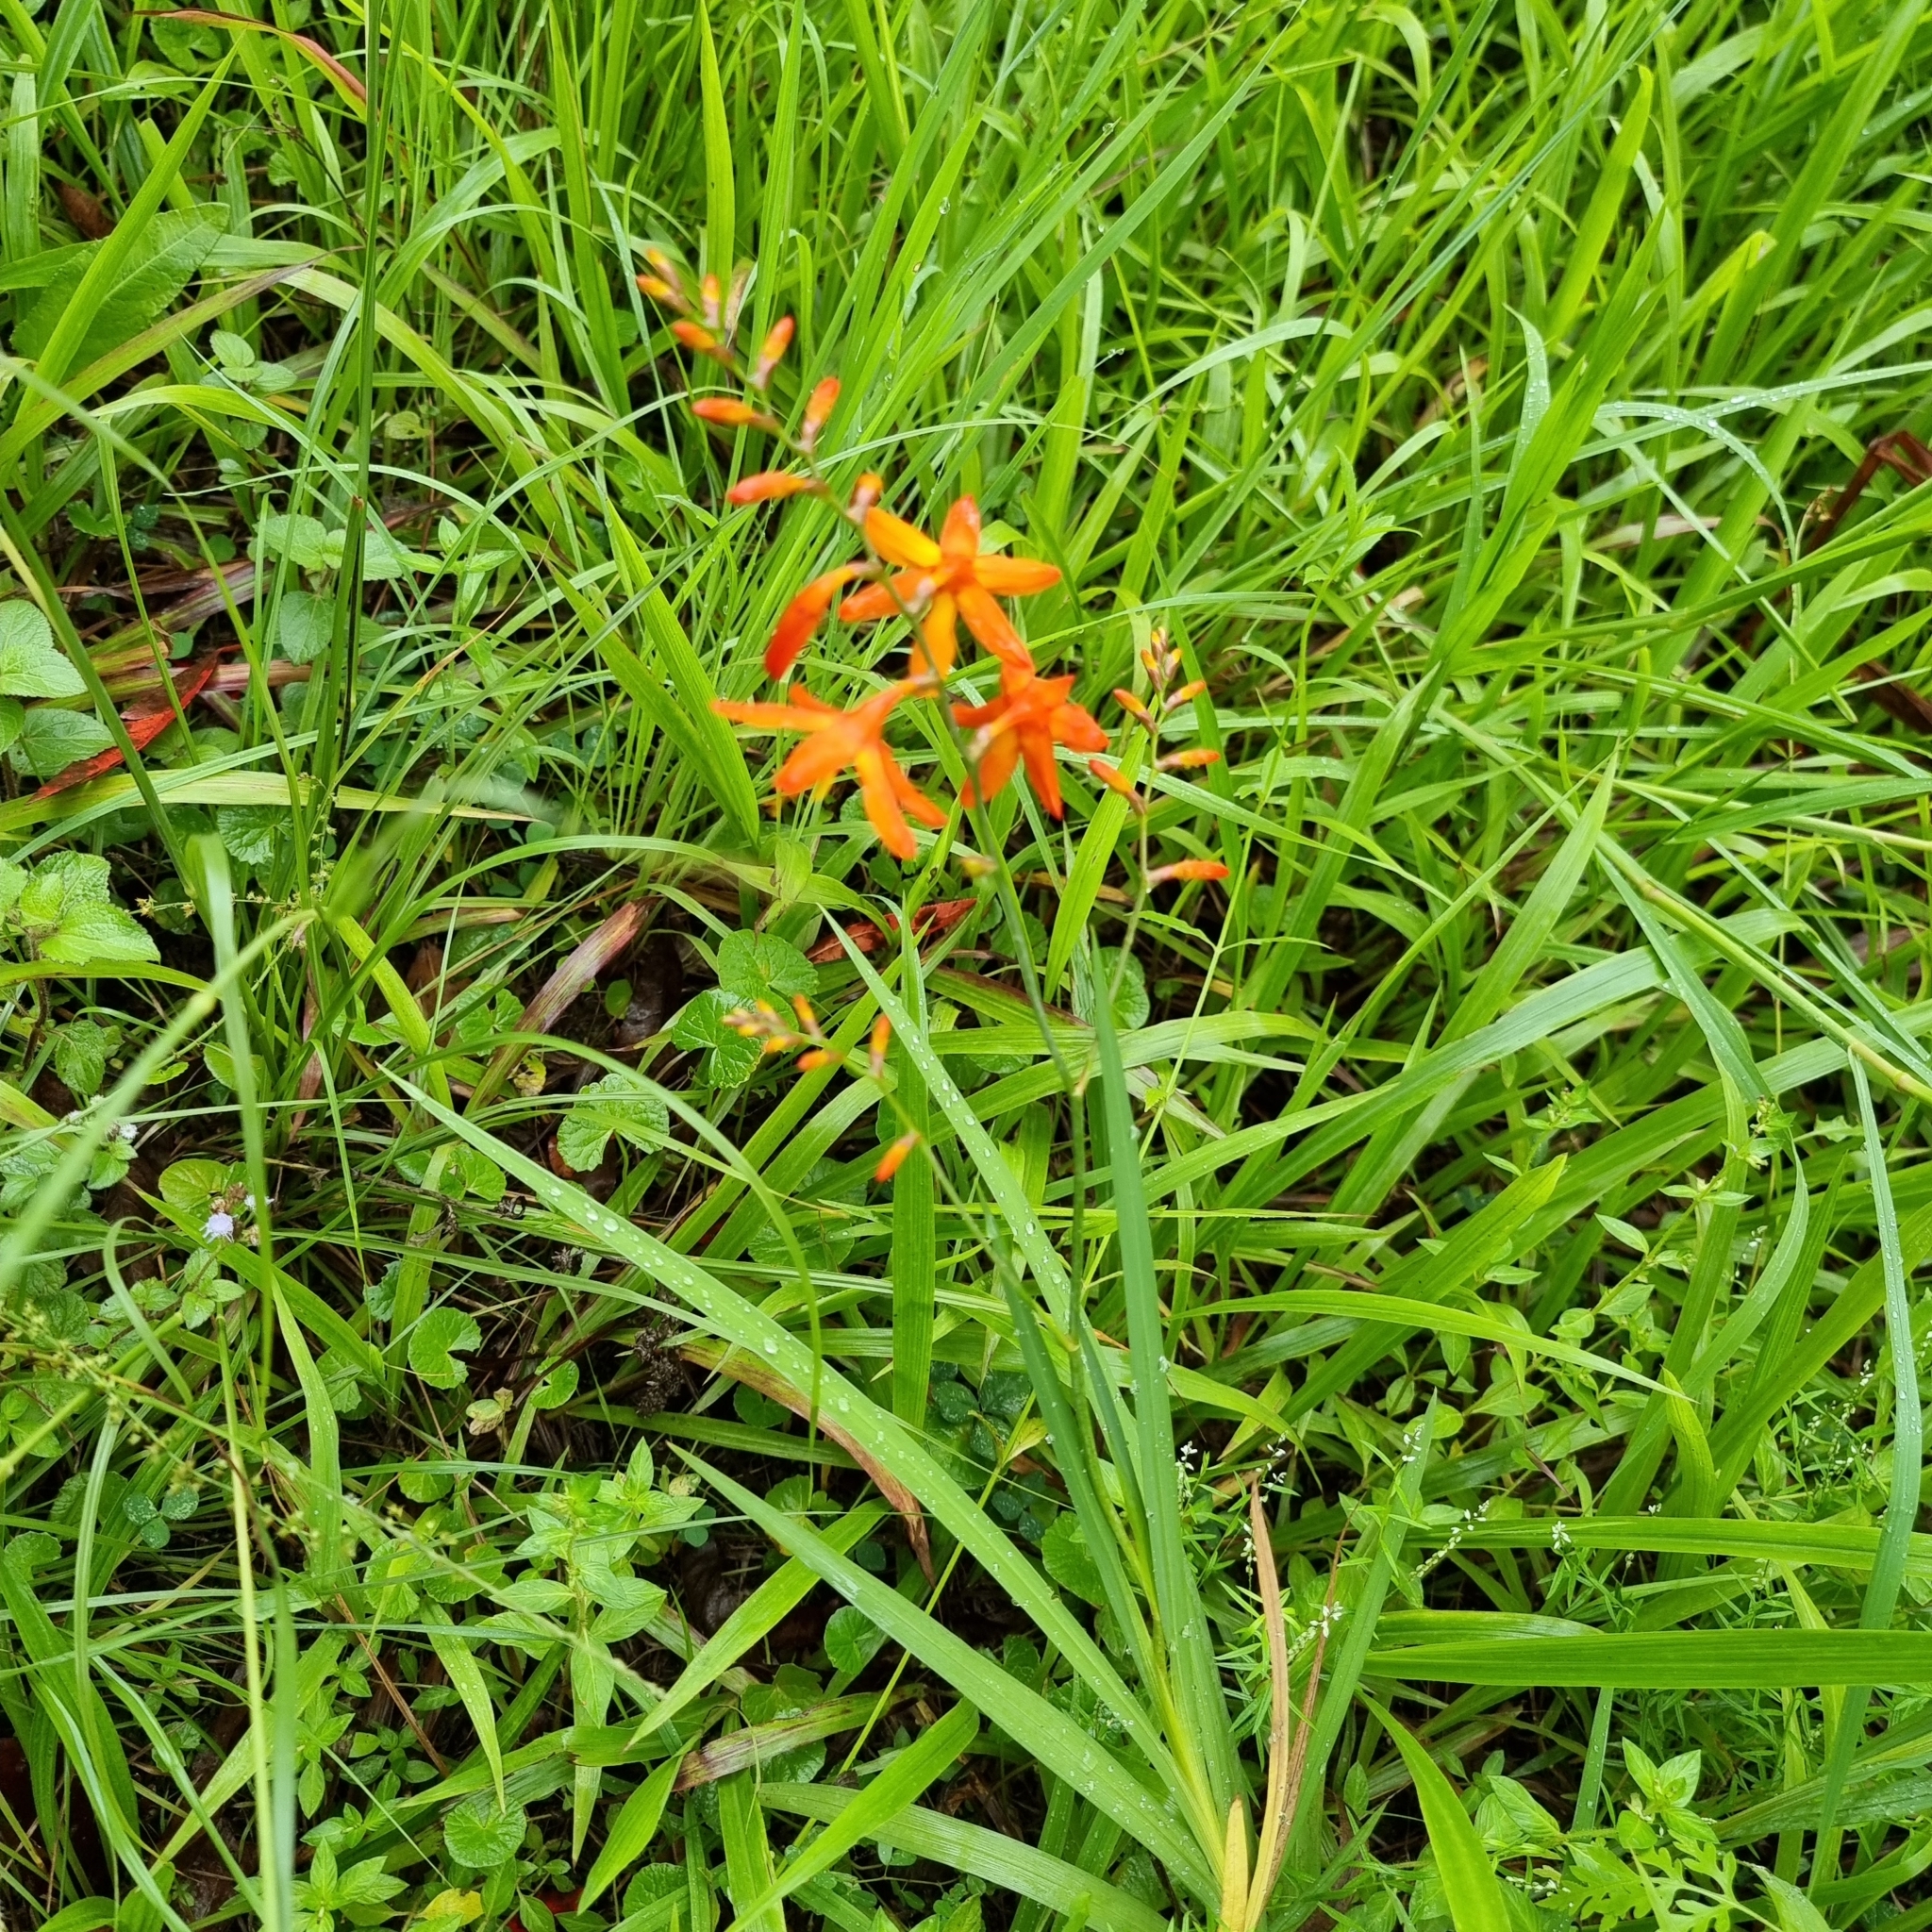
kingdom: Plantae
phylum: Tracheophyta
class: Liliopsida
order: Asparagales
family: Iridaceae
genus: Crocosmia
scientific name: Crocosmia crocosmiiflora
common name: Montbretia
